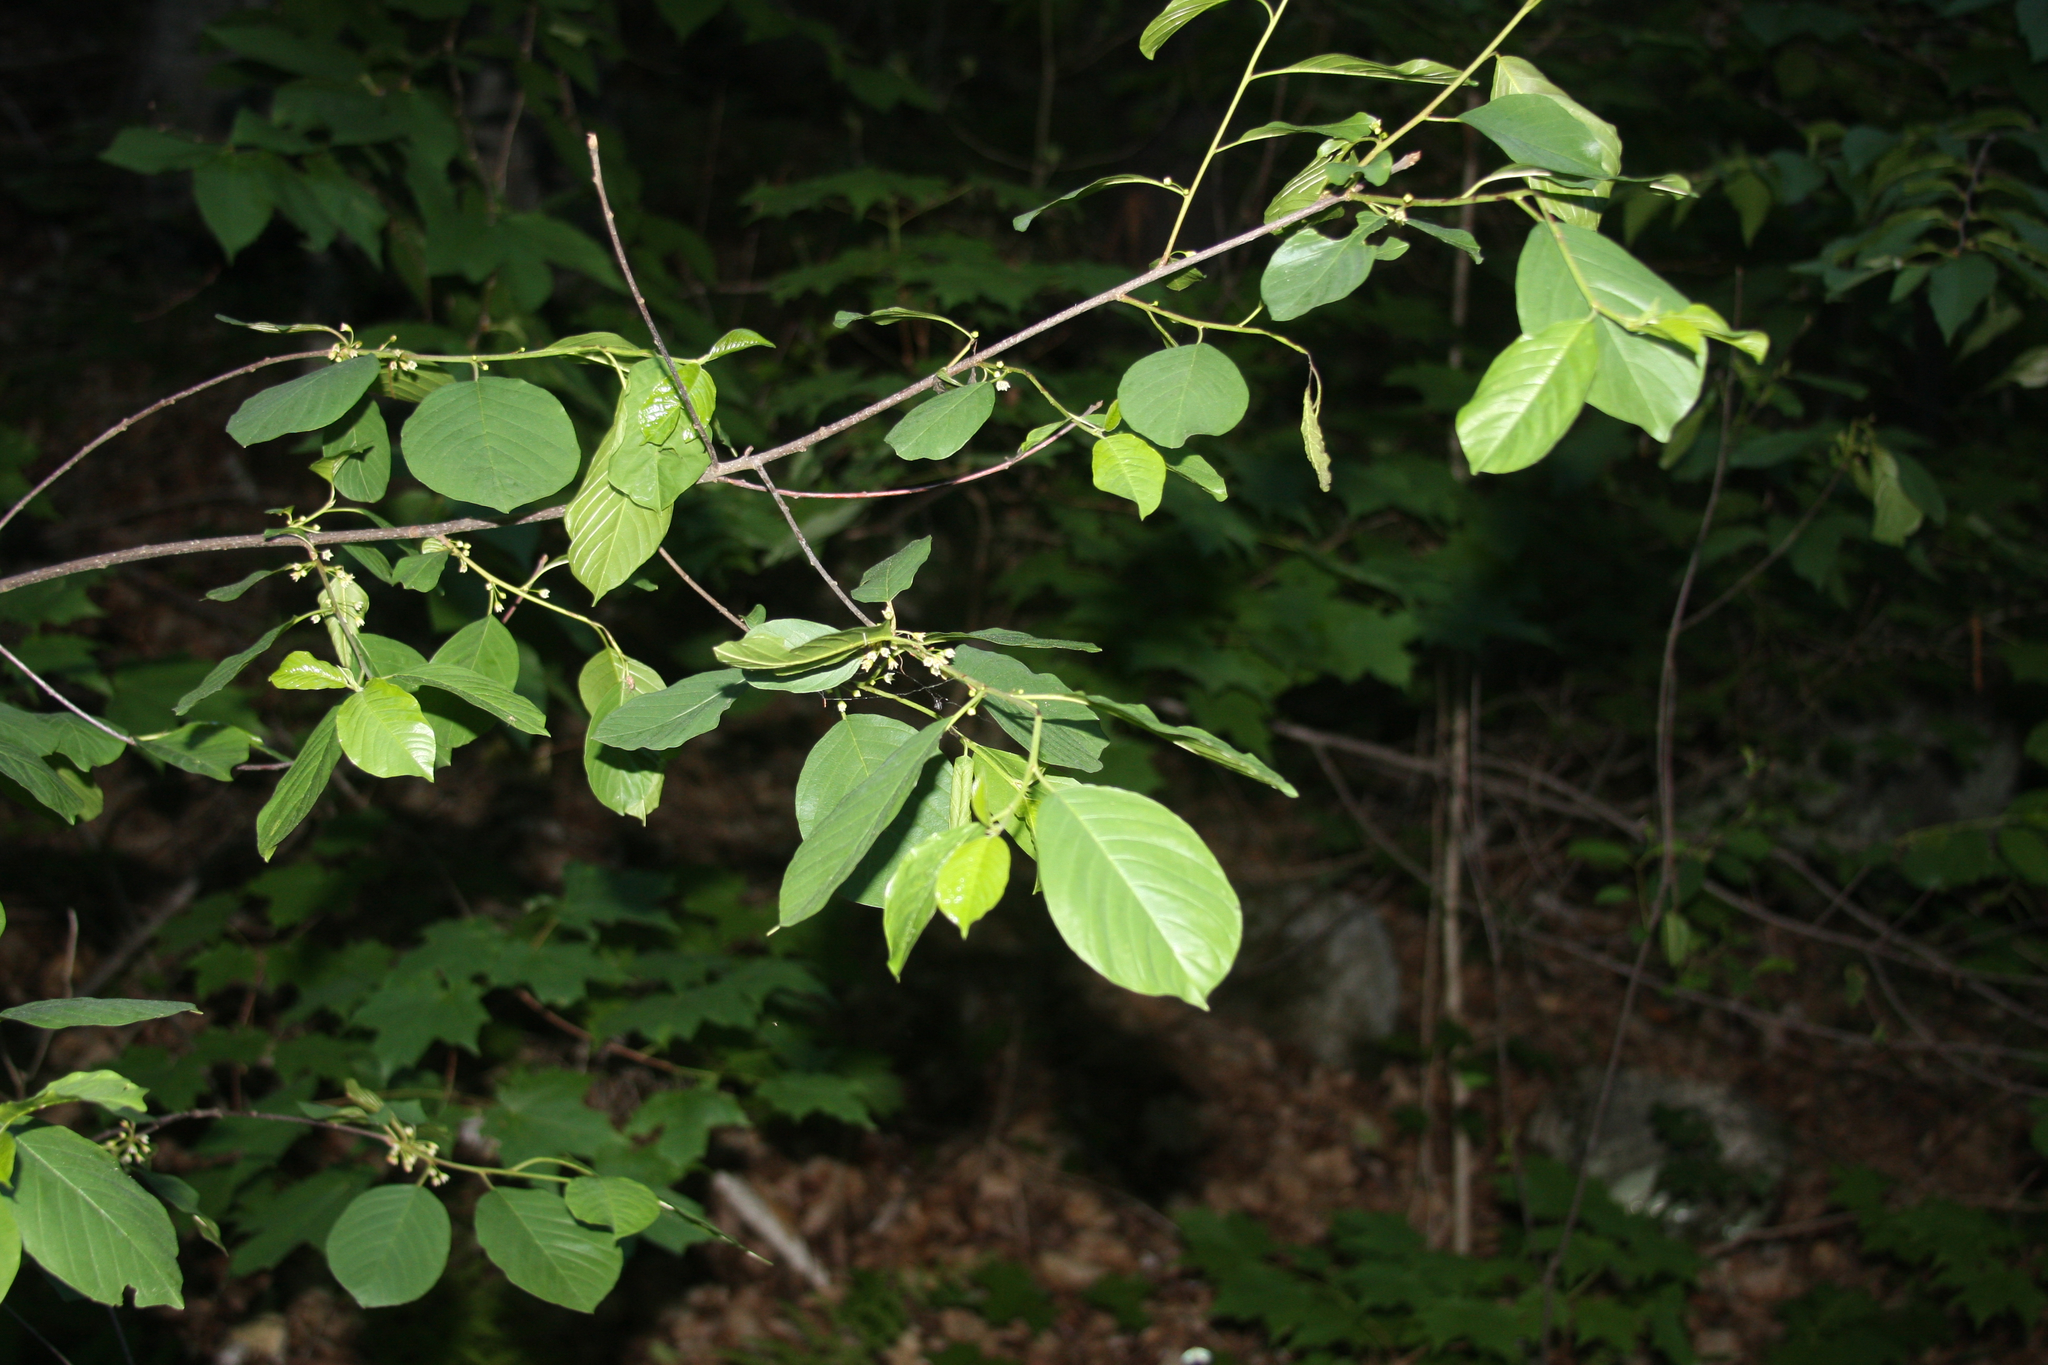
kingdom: Plantae
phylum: Tracheophyta
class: Magnoliopsida
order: Rosales
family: Rhamnaceae
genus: Frangula
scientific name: Frangula alnus
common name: Alder buckthorn
